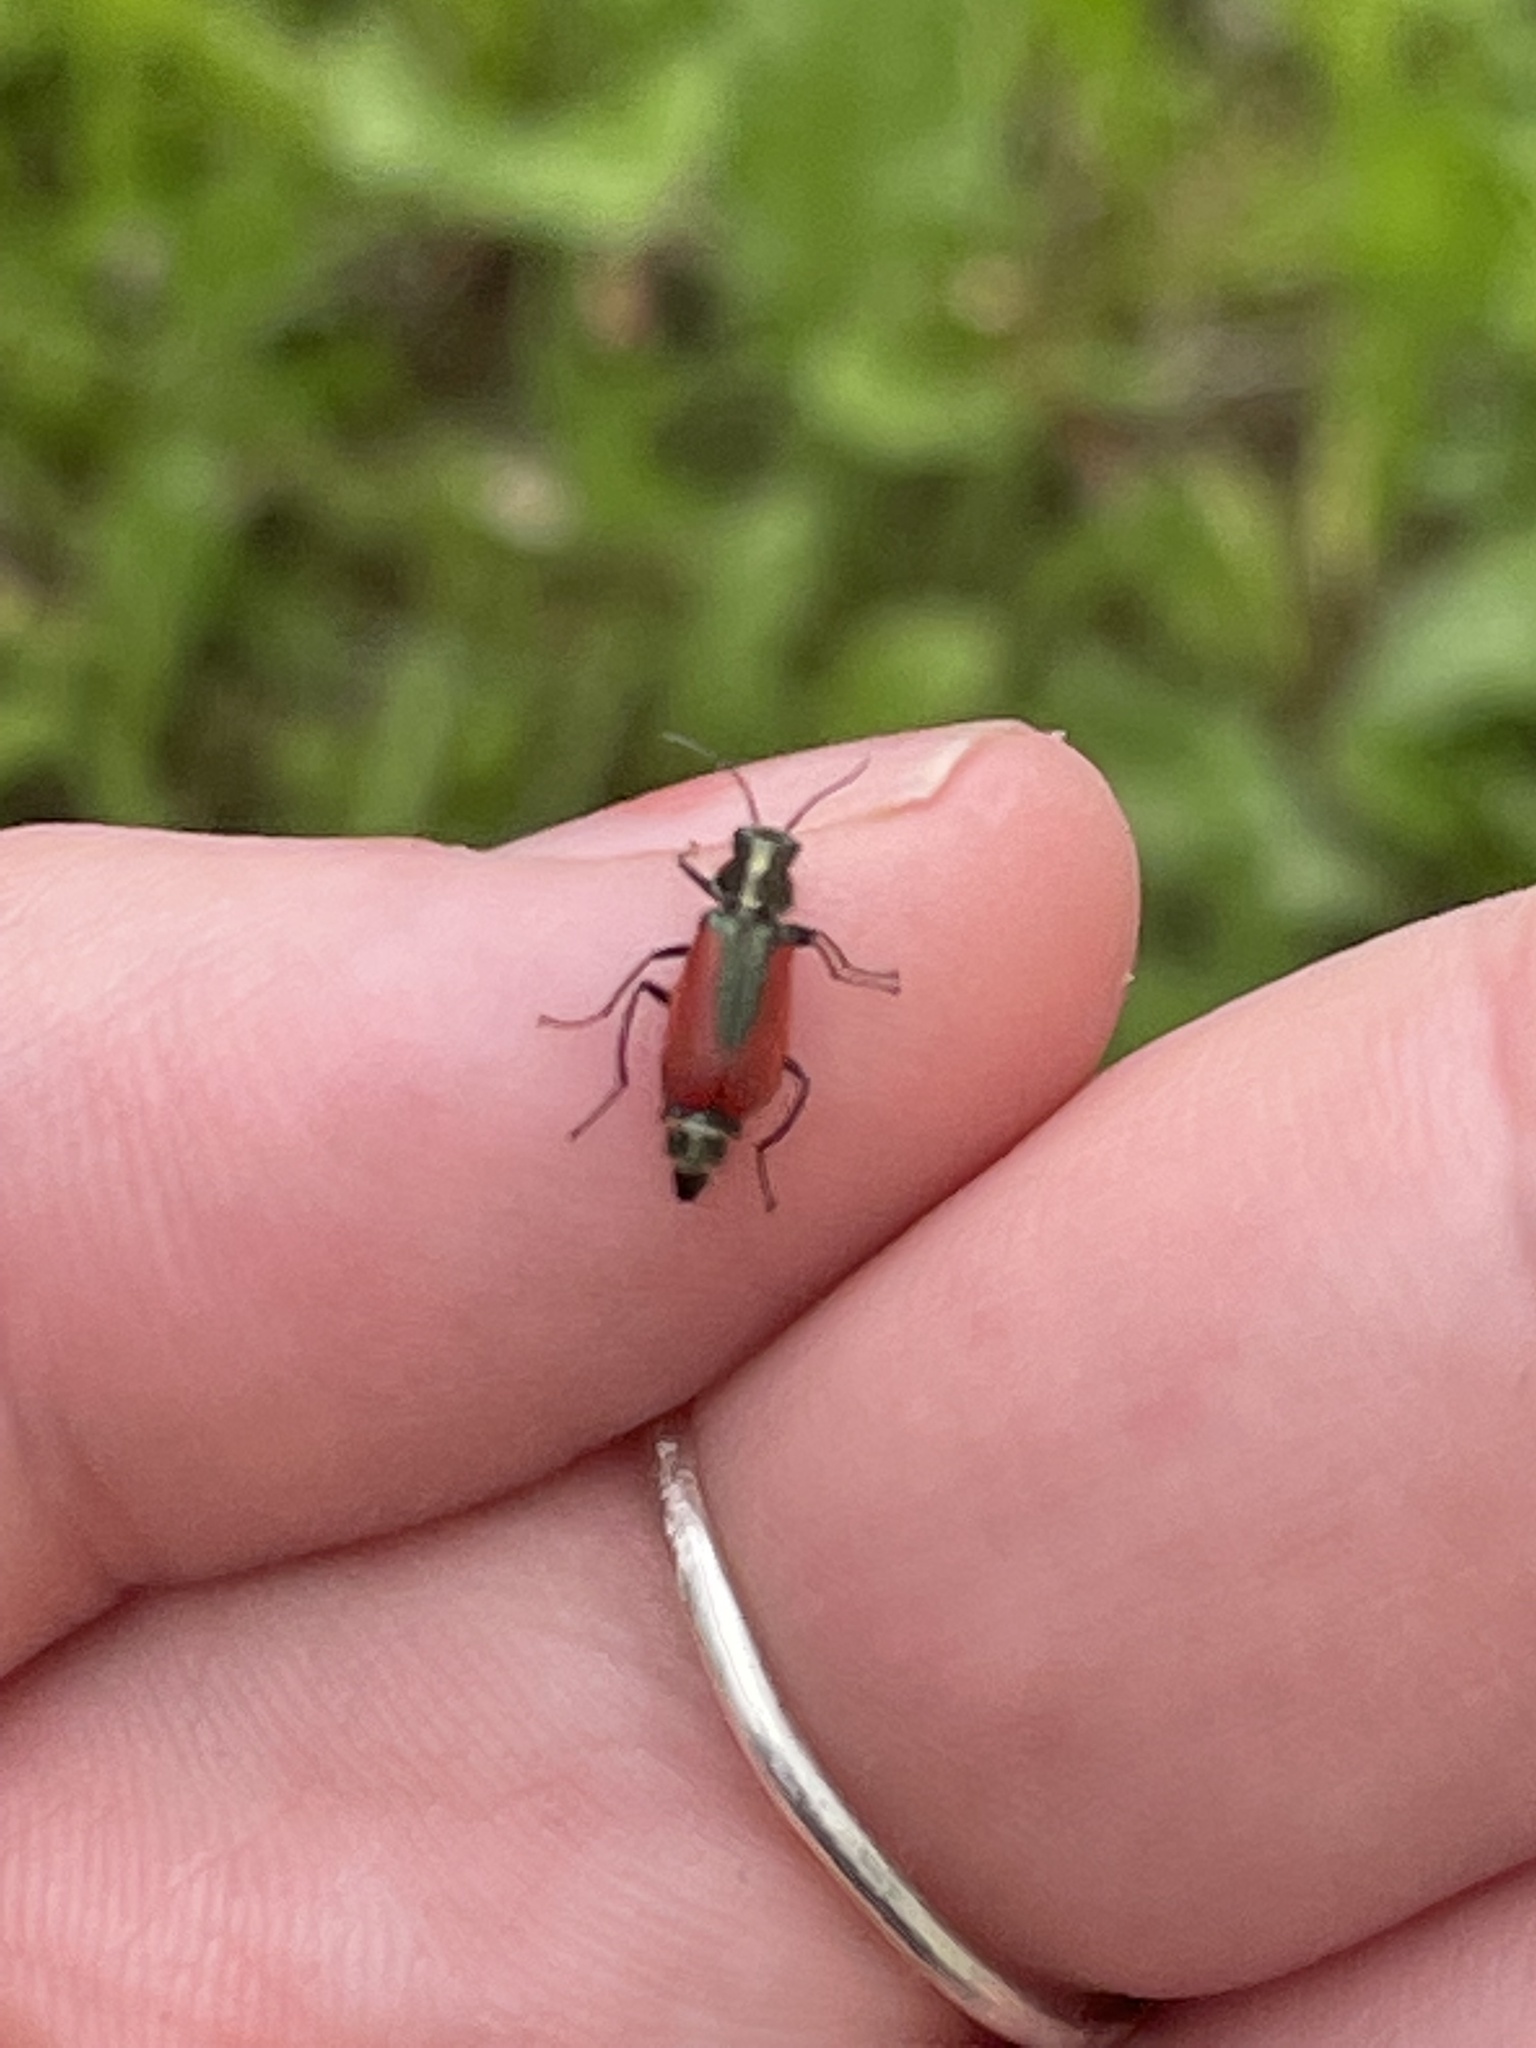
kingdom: Animalia
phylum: Arthropoda
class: Insecta
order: Coleoptera
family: Melyridae
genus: Malachius
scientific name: Malachius aeneus
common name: Scarlet malachite beetle
